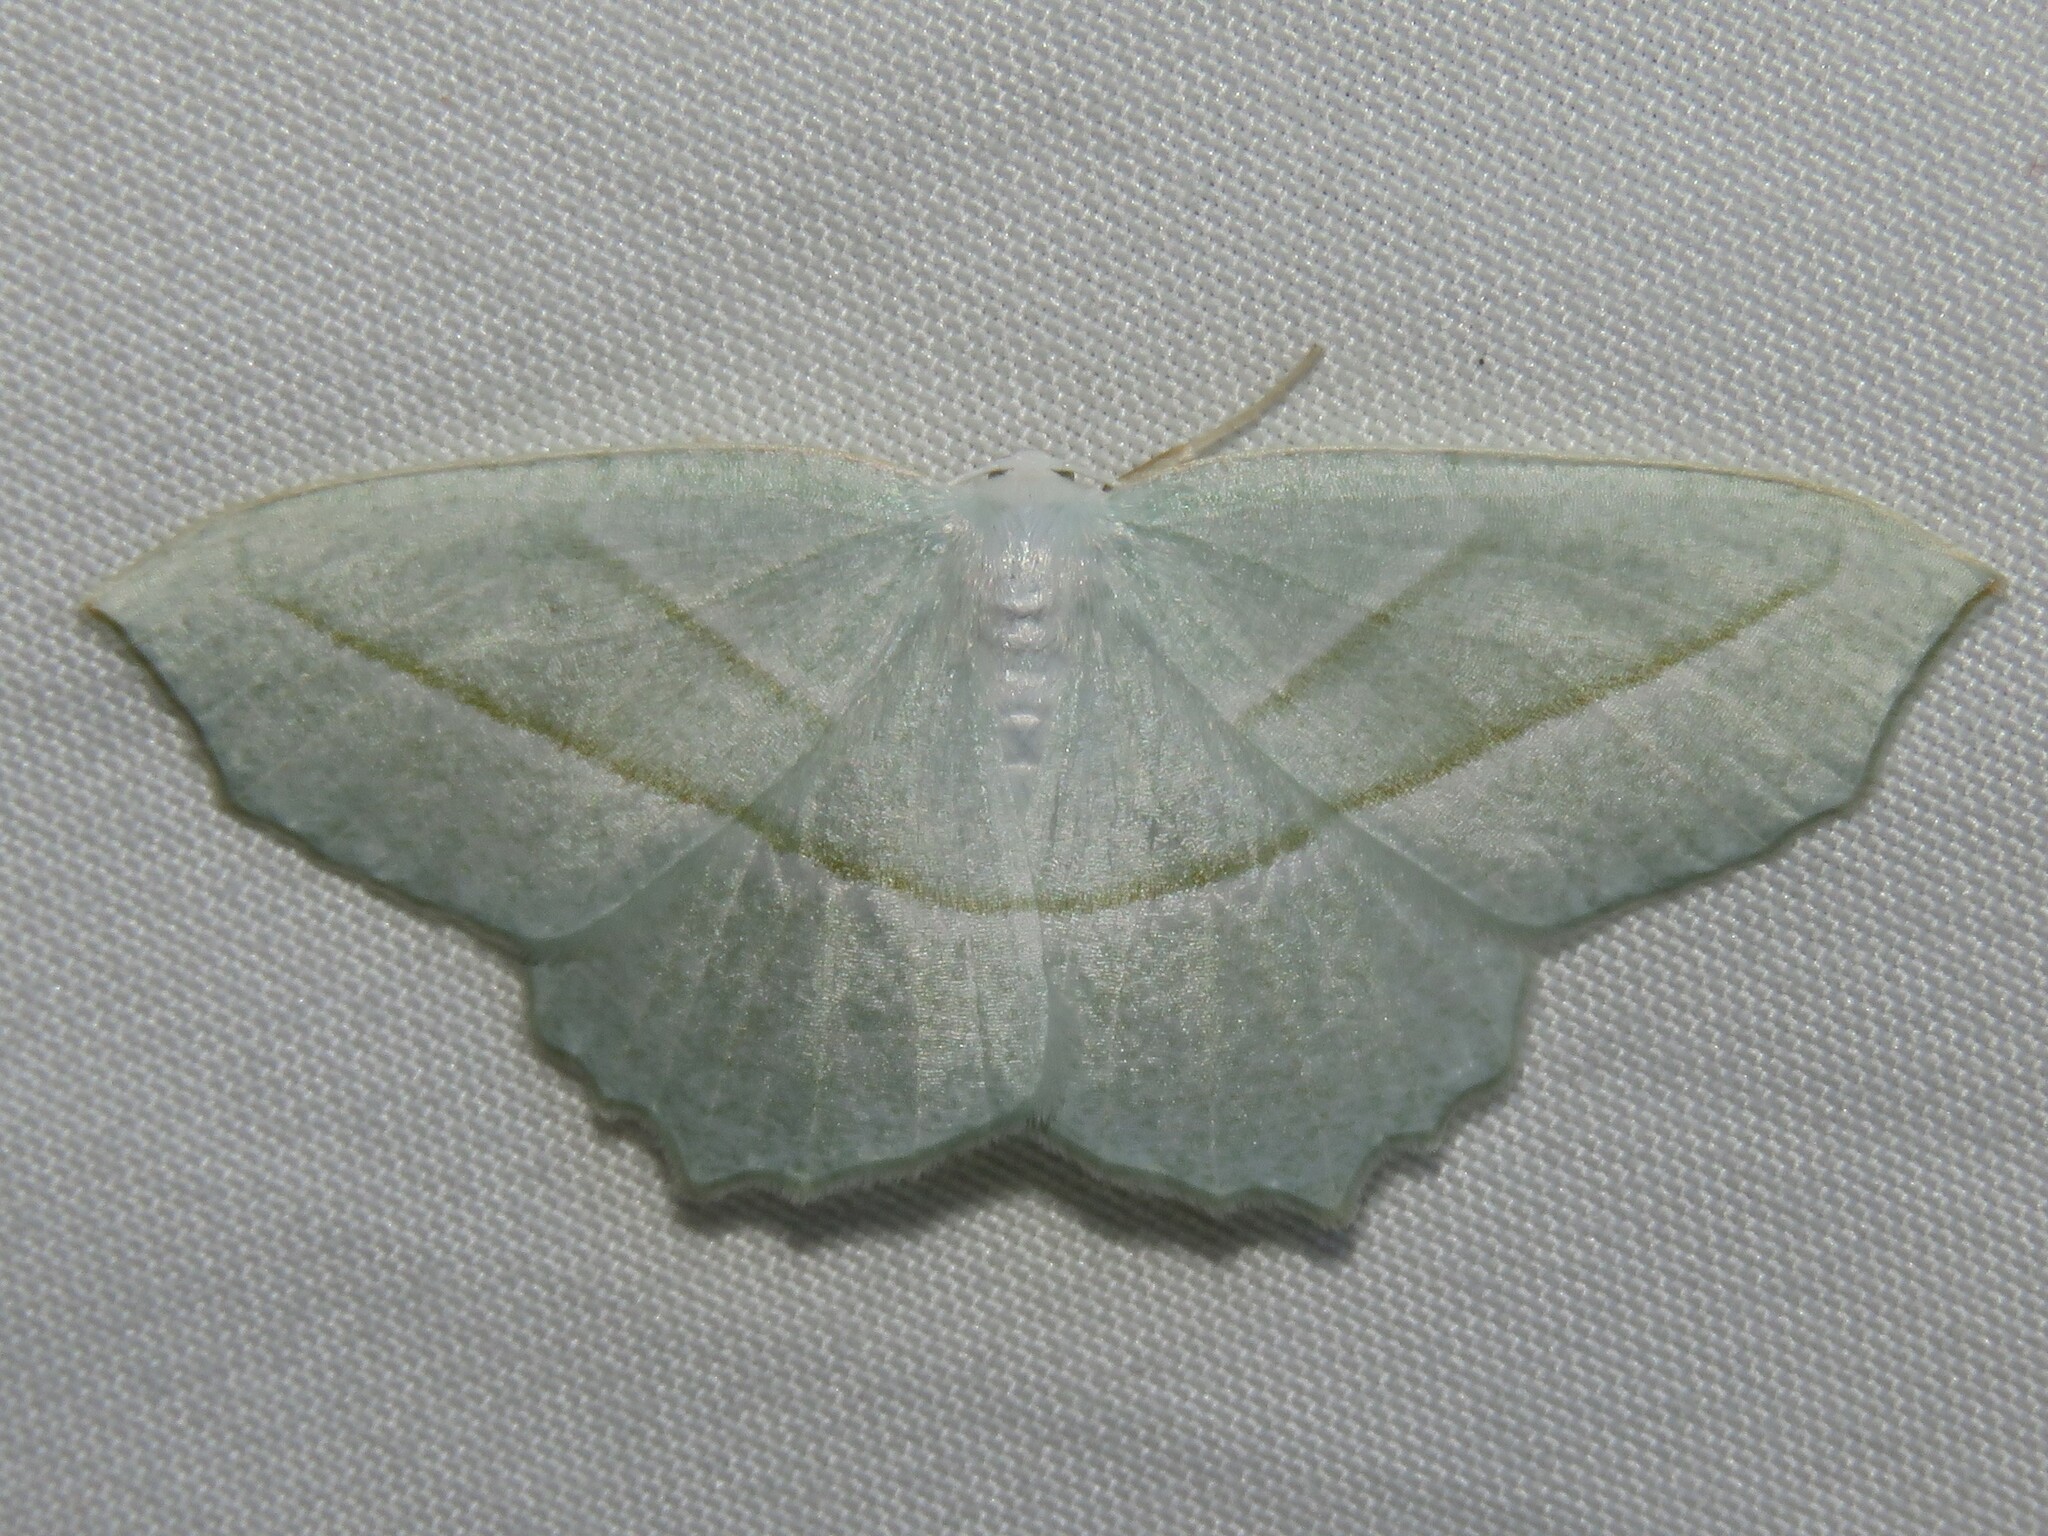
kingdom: Animalia
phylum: Arthropoda
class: Insecta
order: Lepidoptera
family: Geometridae
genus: Campaea
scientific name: Campaea perlata
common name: Fringed looper
